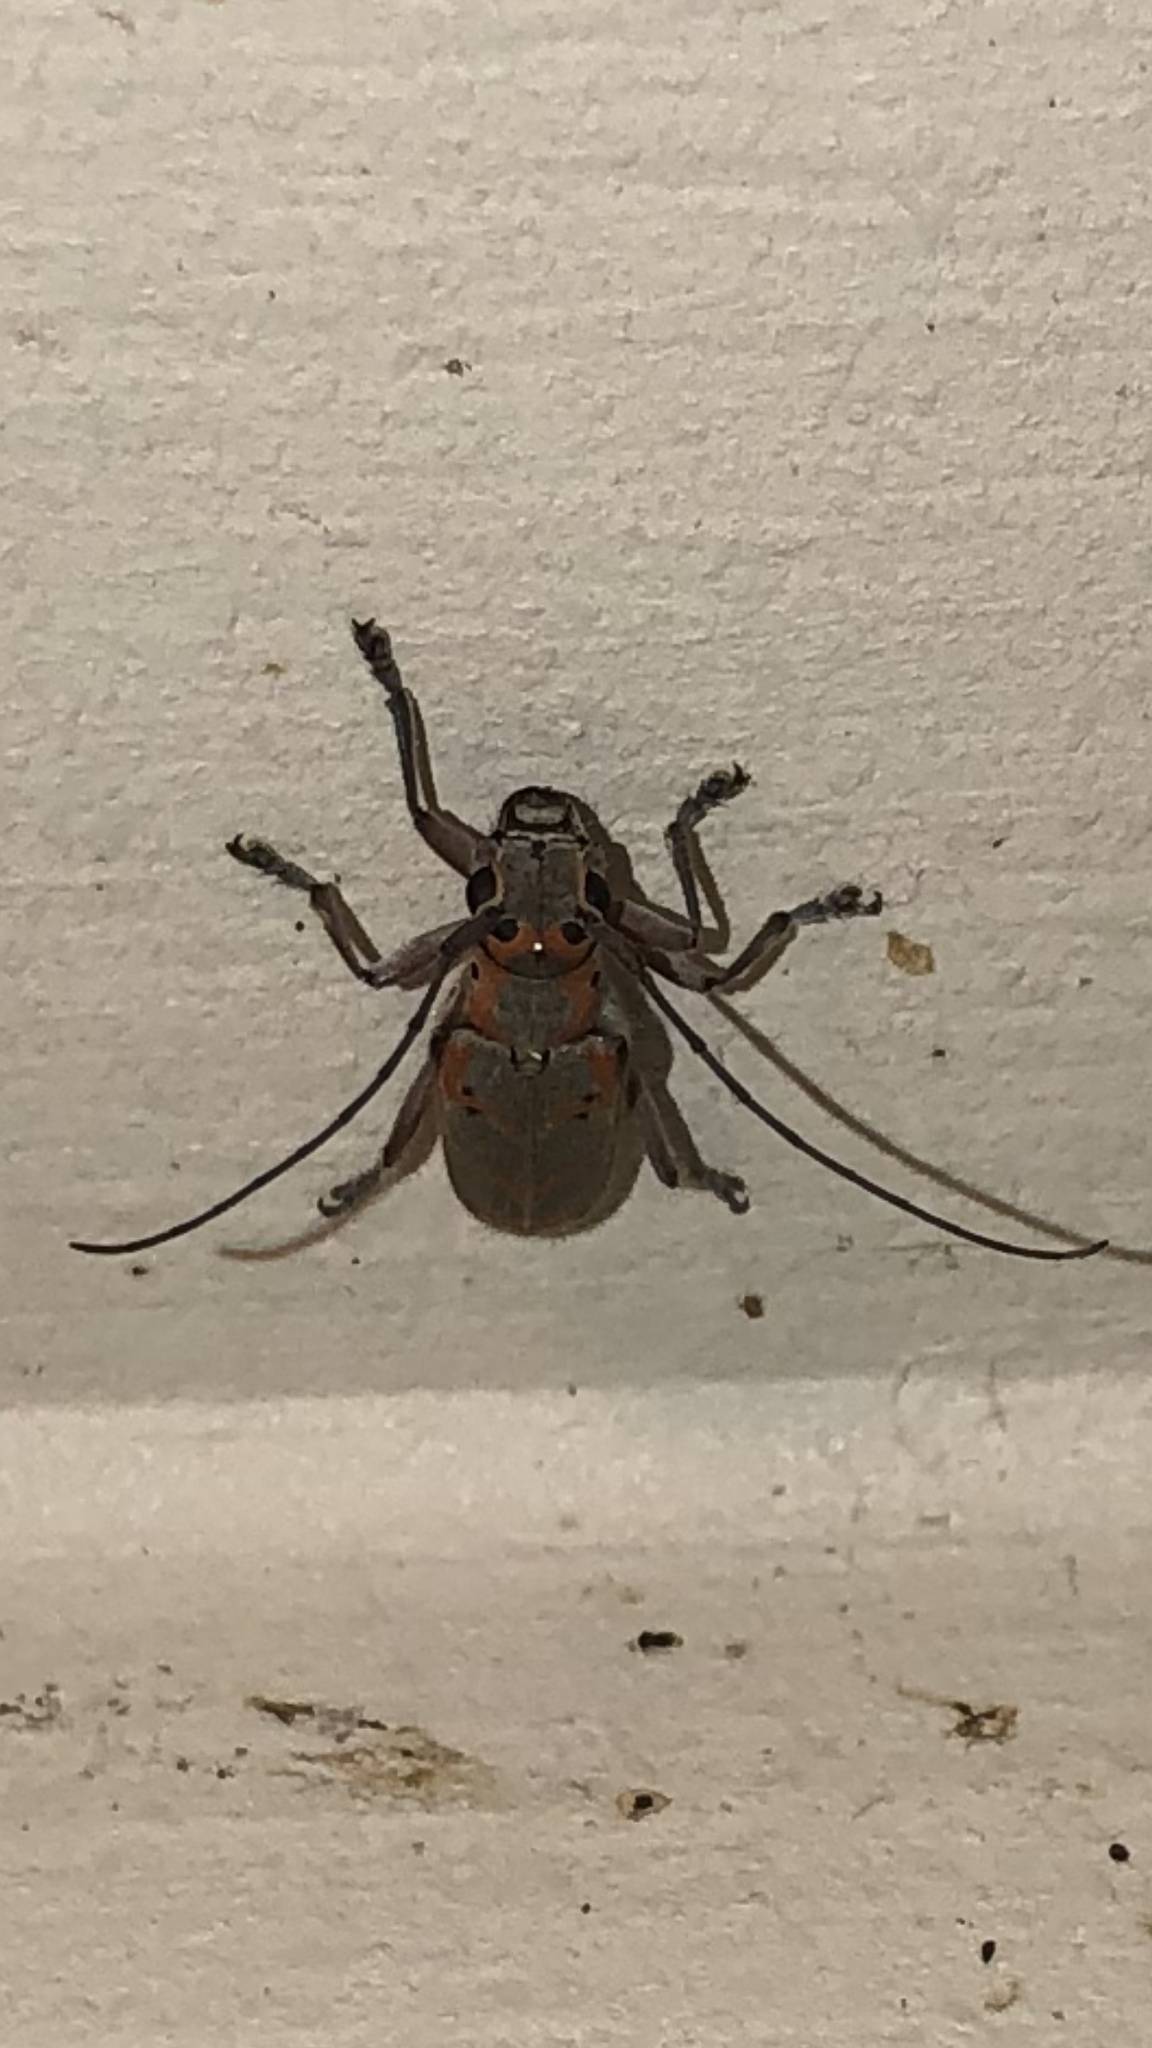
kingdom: Animalia
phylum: Arthropoda
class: Insecta
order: Coleoptera
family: Cerambycidae
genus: Saperda
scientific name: Saperda tridentata
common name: Elm borer
